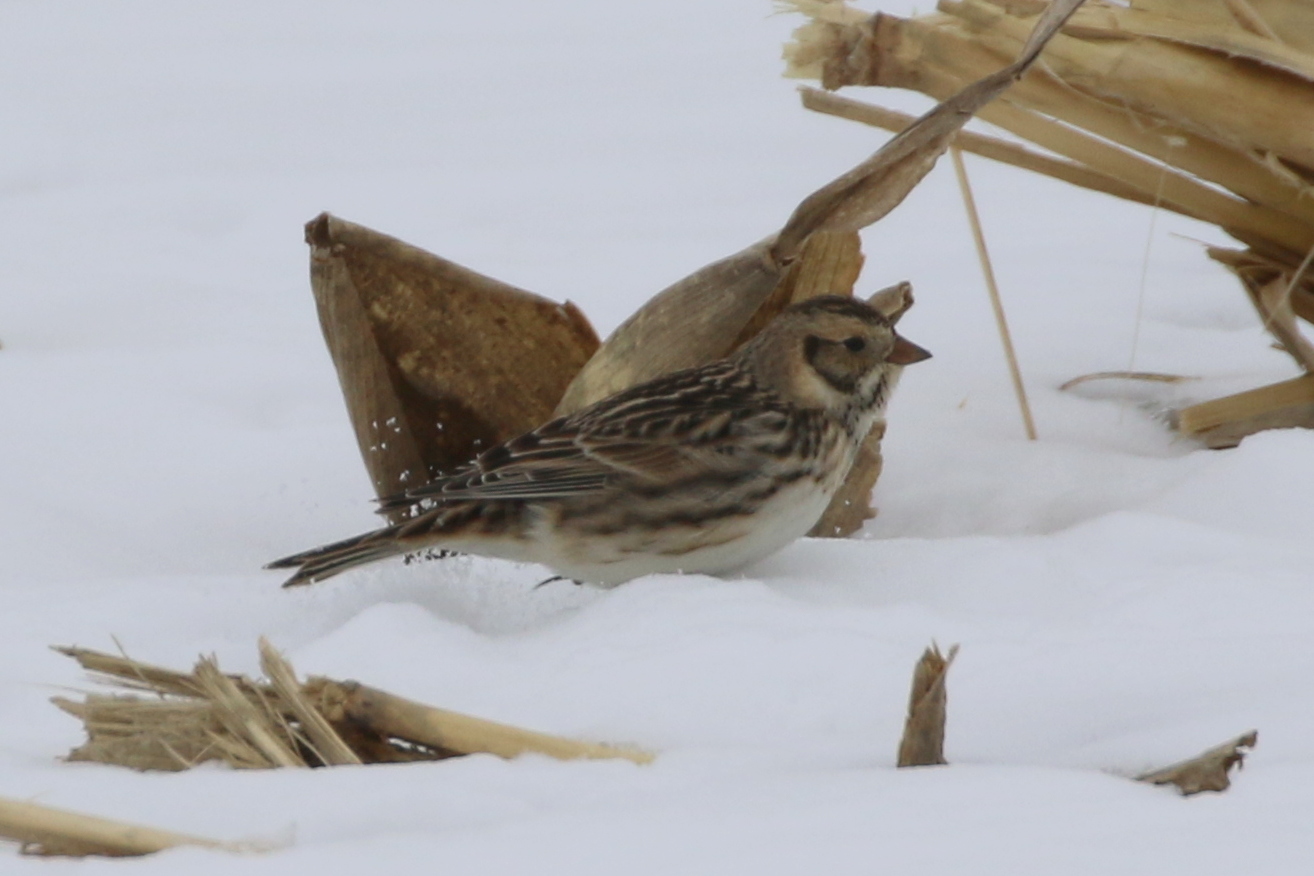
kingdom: Animalia
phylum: Chordata
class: Aves
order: Passeriformes
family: Calcariidae
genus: Calcarius
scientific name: Calcarius lapponicus
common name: Lapland longspur
